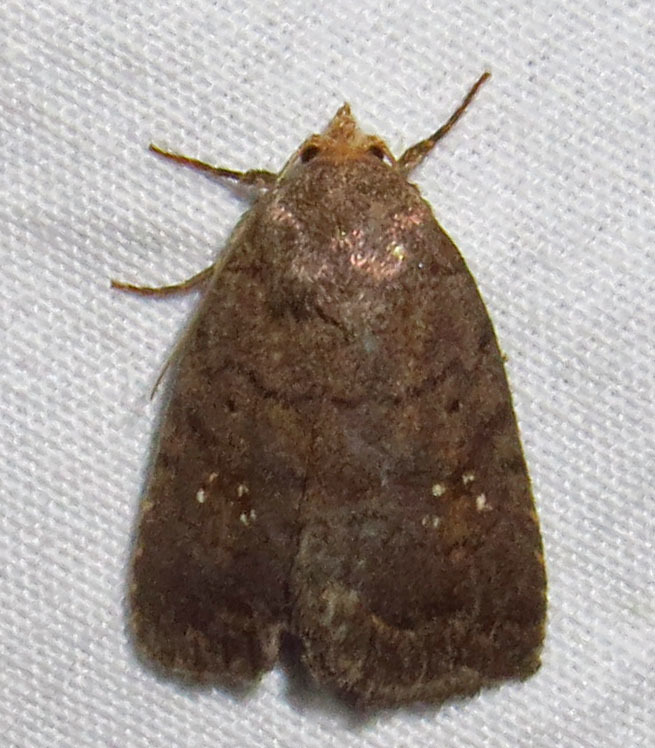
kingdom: Animalia
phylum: Arthropoda
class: Insecta
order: Lepidoptera
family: Noctuidae
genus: Athetis
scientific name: Athetis tarda
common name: Slowpoke moth
